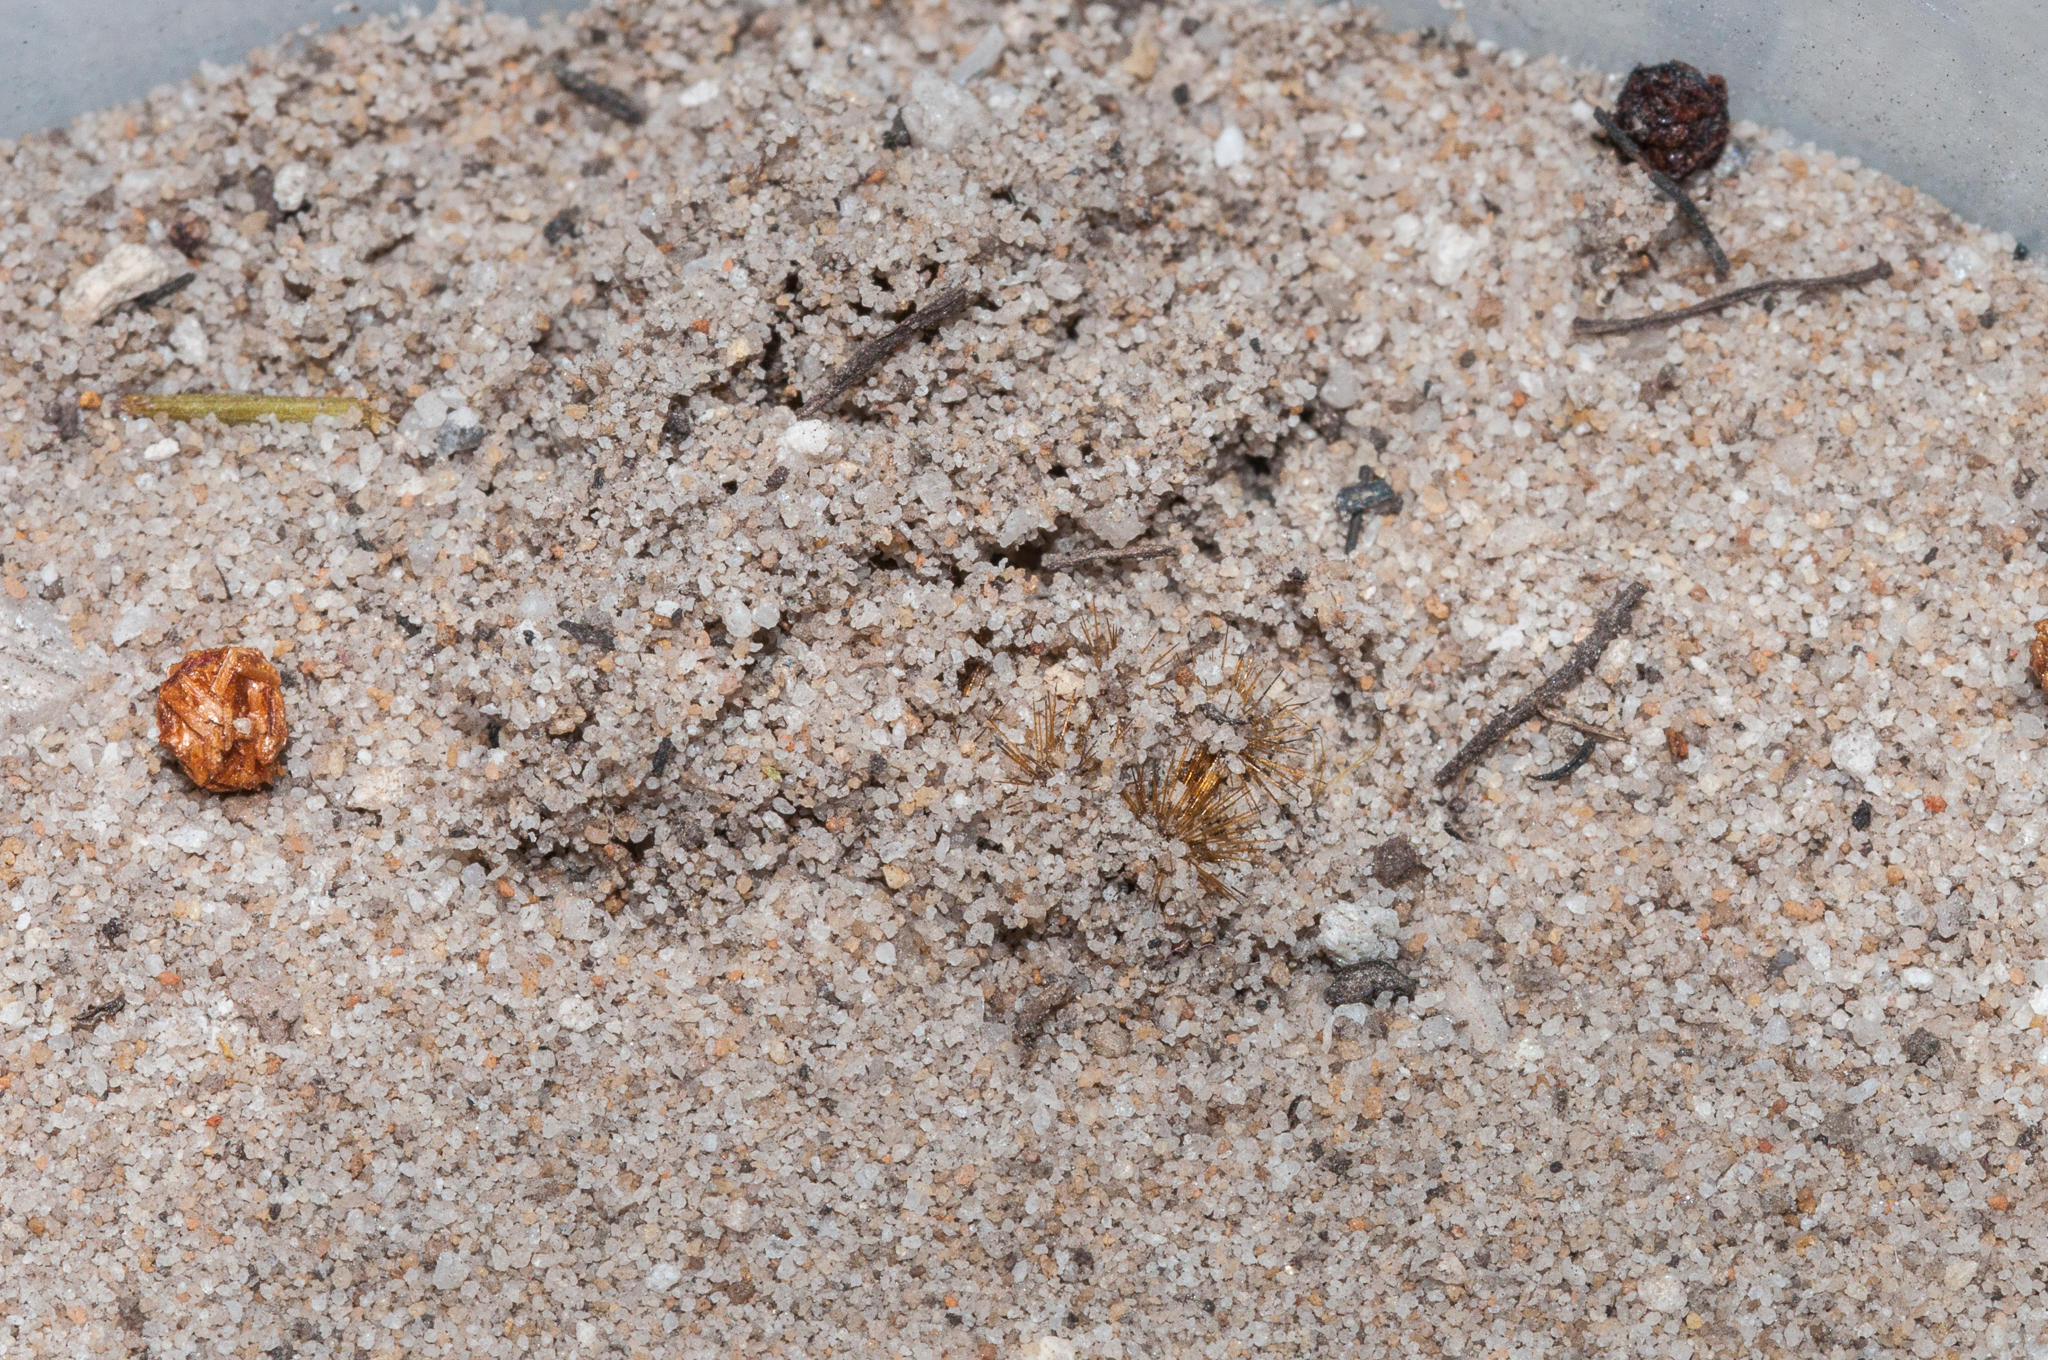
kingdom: Animalia
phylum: Arthropoda
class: Insecta
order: Lepidoptera
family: Somabrachyidae
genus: Psycharium
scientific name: Psycharium pellucens
